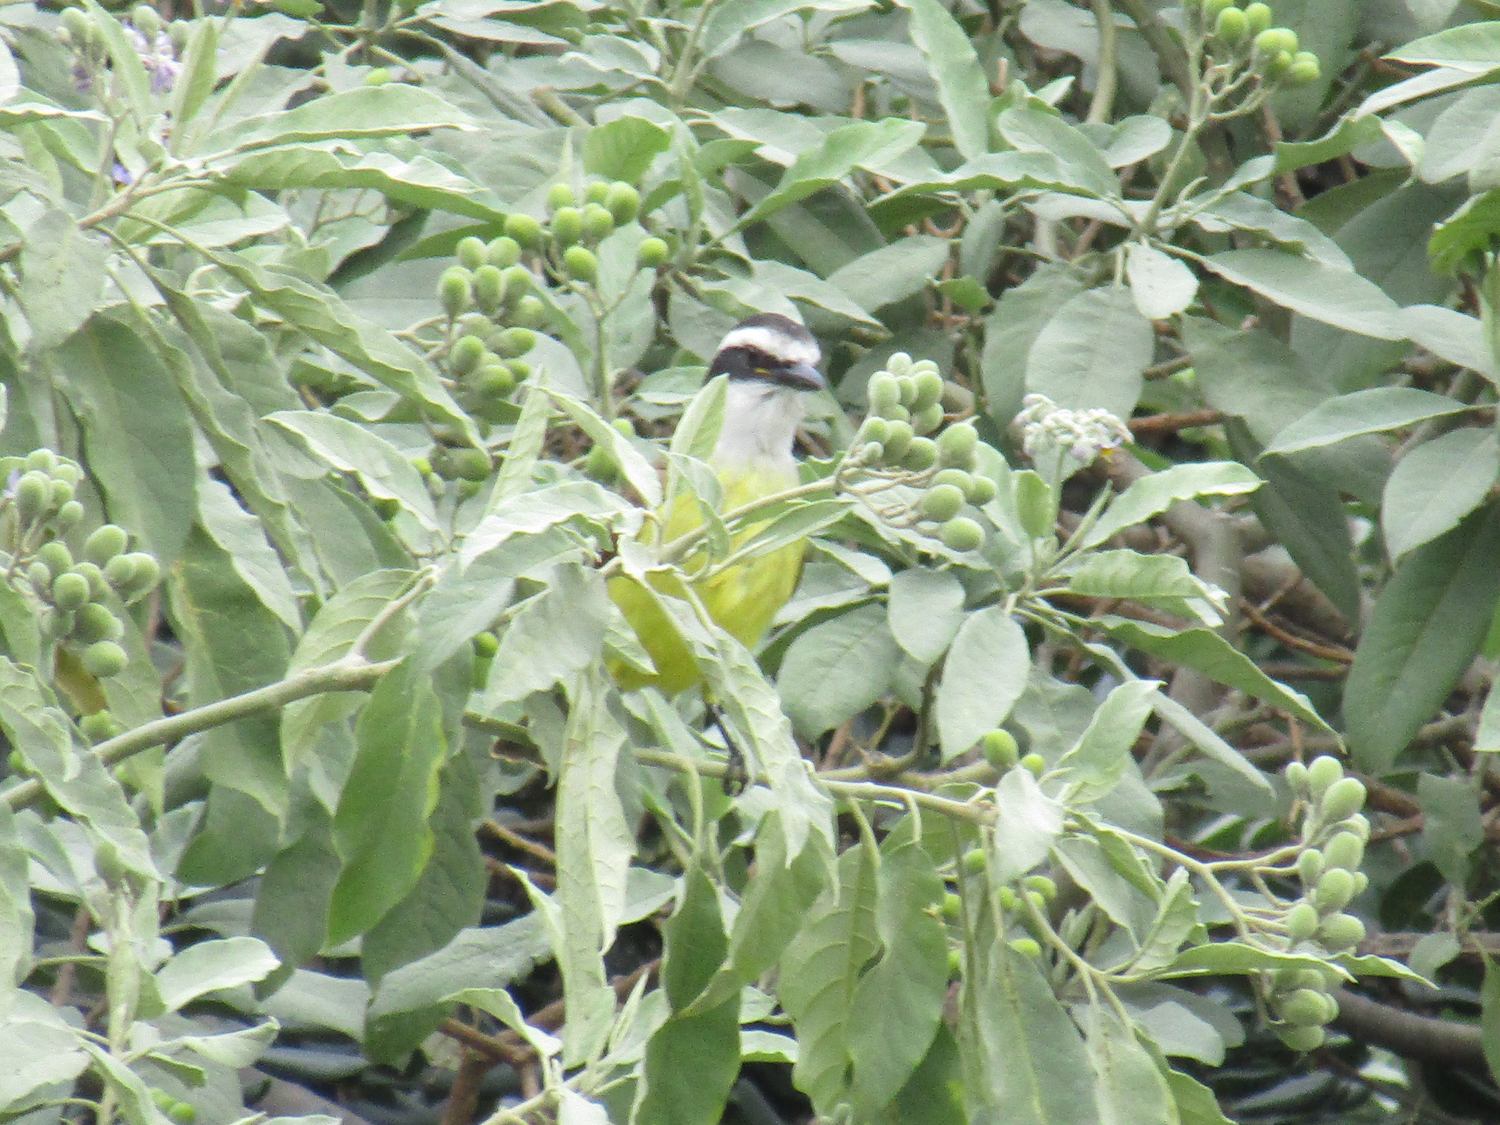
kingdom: Animalia
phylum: Chordata
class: Aves
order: Passeriformes
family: Tyrannidae
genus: Pitangus
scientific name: Pitangus sulphuratus
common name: Great kiskadee
